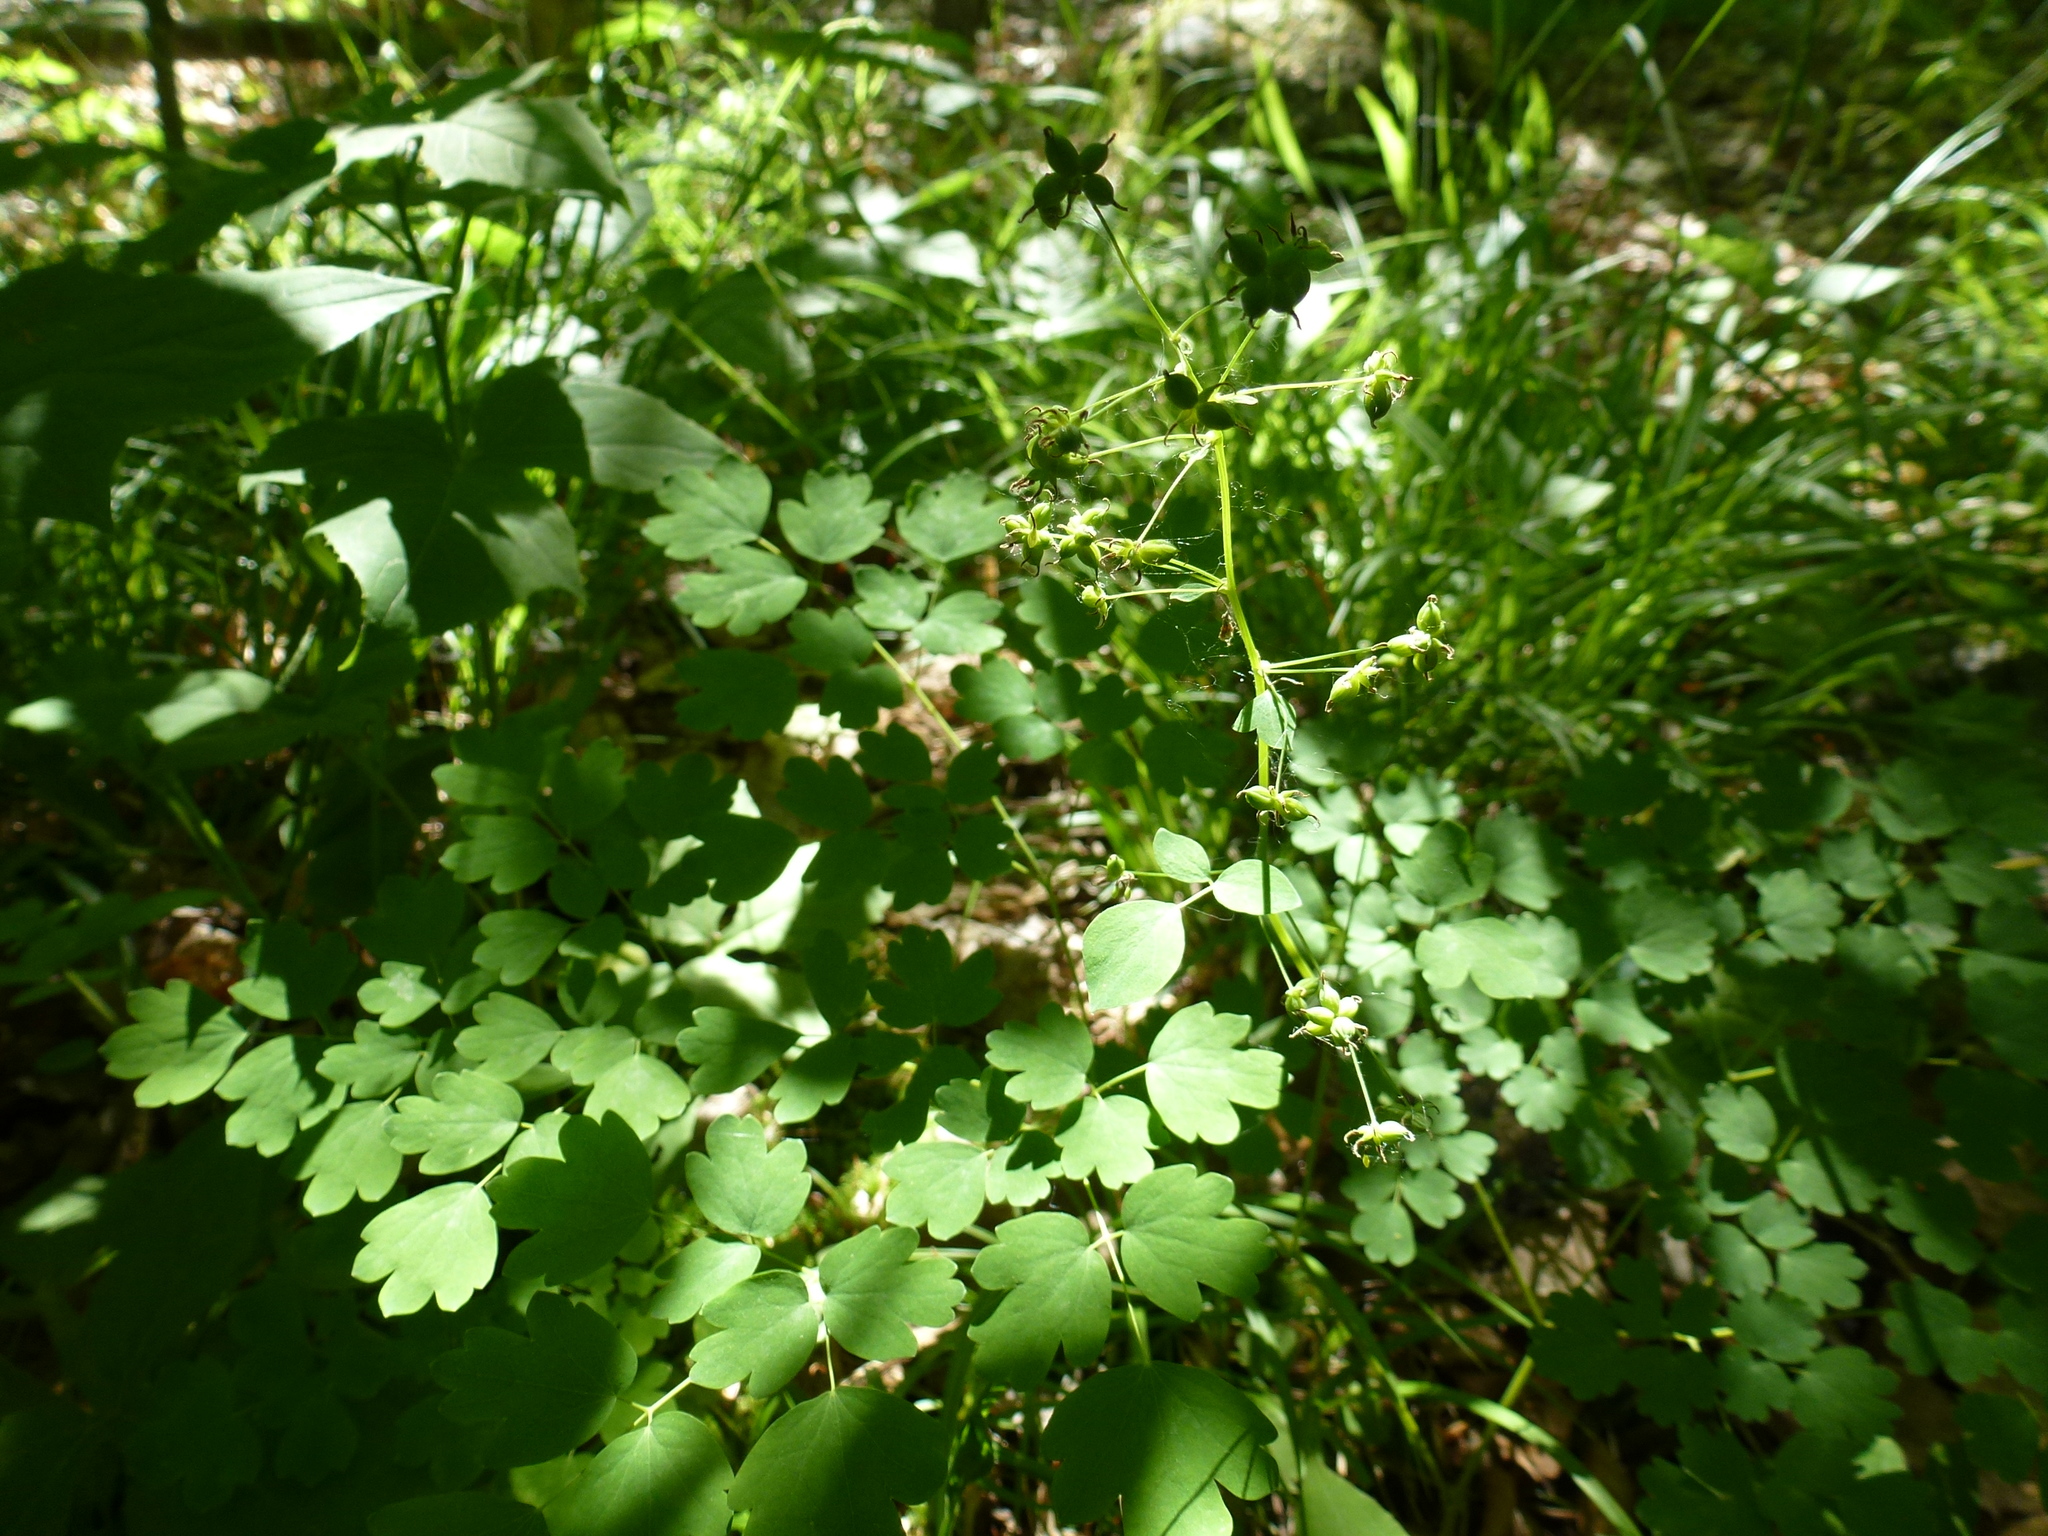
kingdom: Plantae
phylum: Tracheophyta
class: Magnoliopsida
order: Ranunculales
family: Ranunculaceae
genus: Thalictrum
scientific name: Thalictrum dioicum
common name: Early meadow-rue
